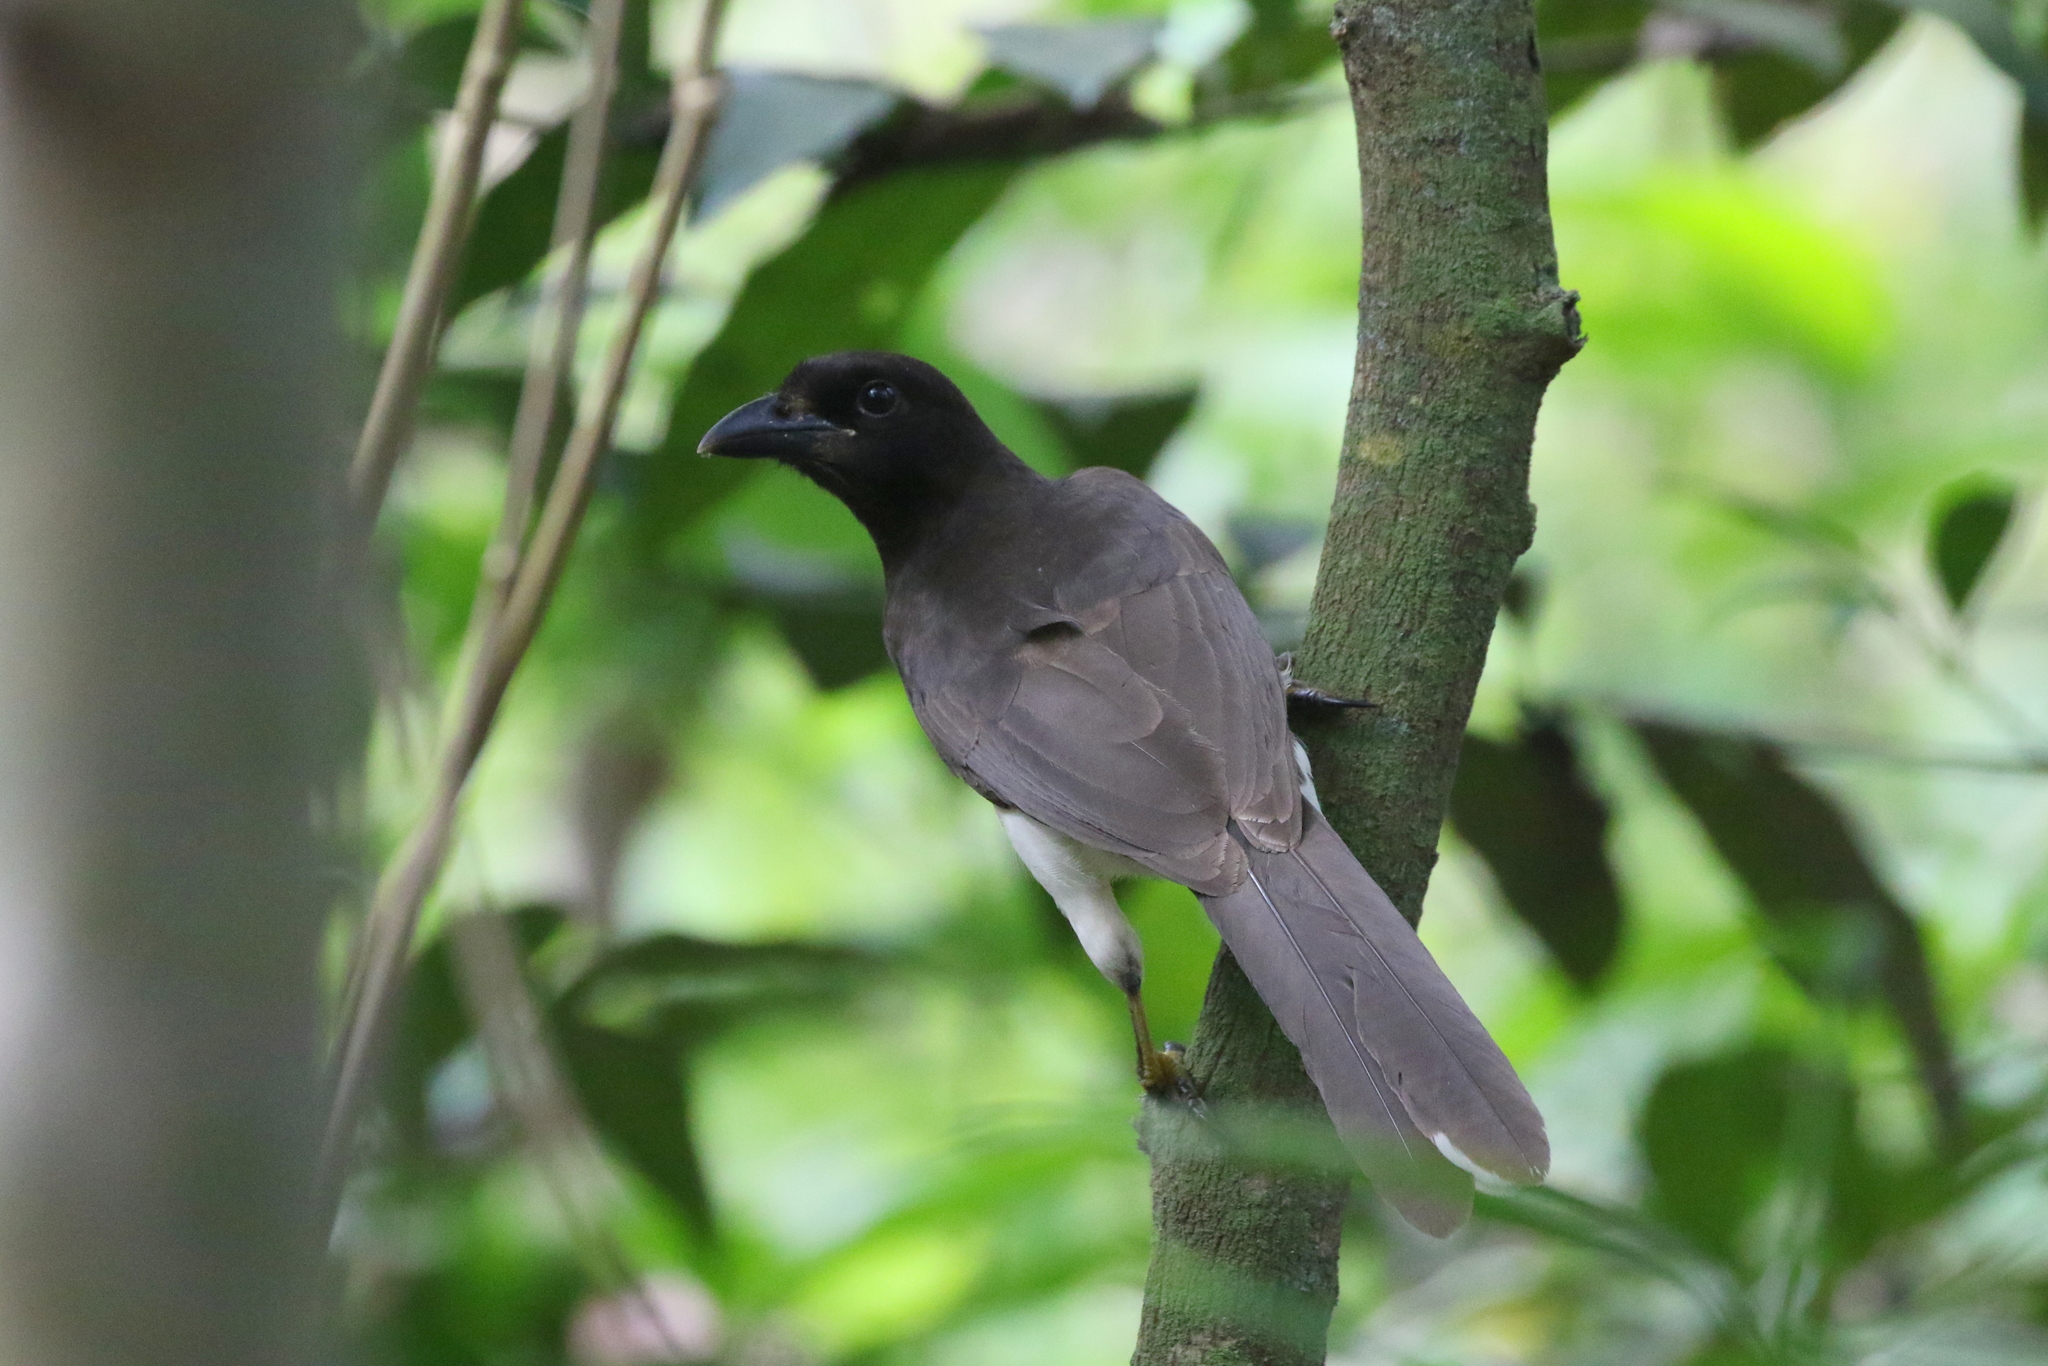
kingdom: Animalia
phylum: Chordata
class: Aves
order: Passeriformes
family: Corvidae
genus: Psilorhinus
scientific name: Psilorhinus morio
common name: Brown jay
